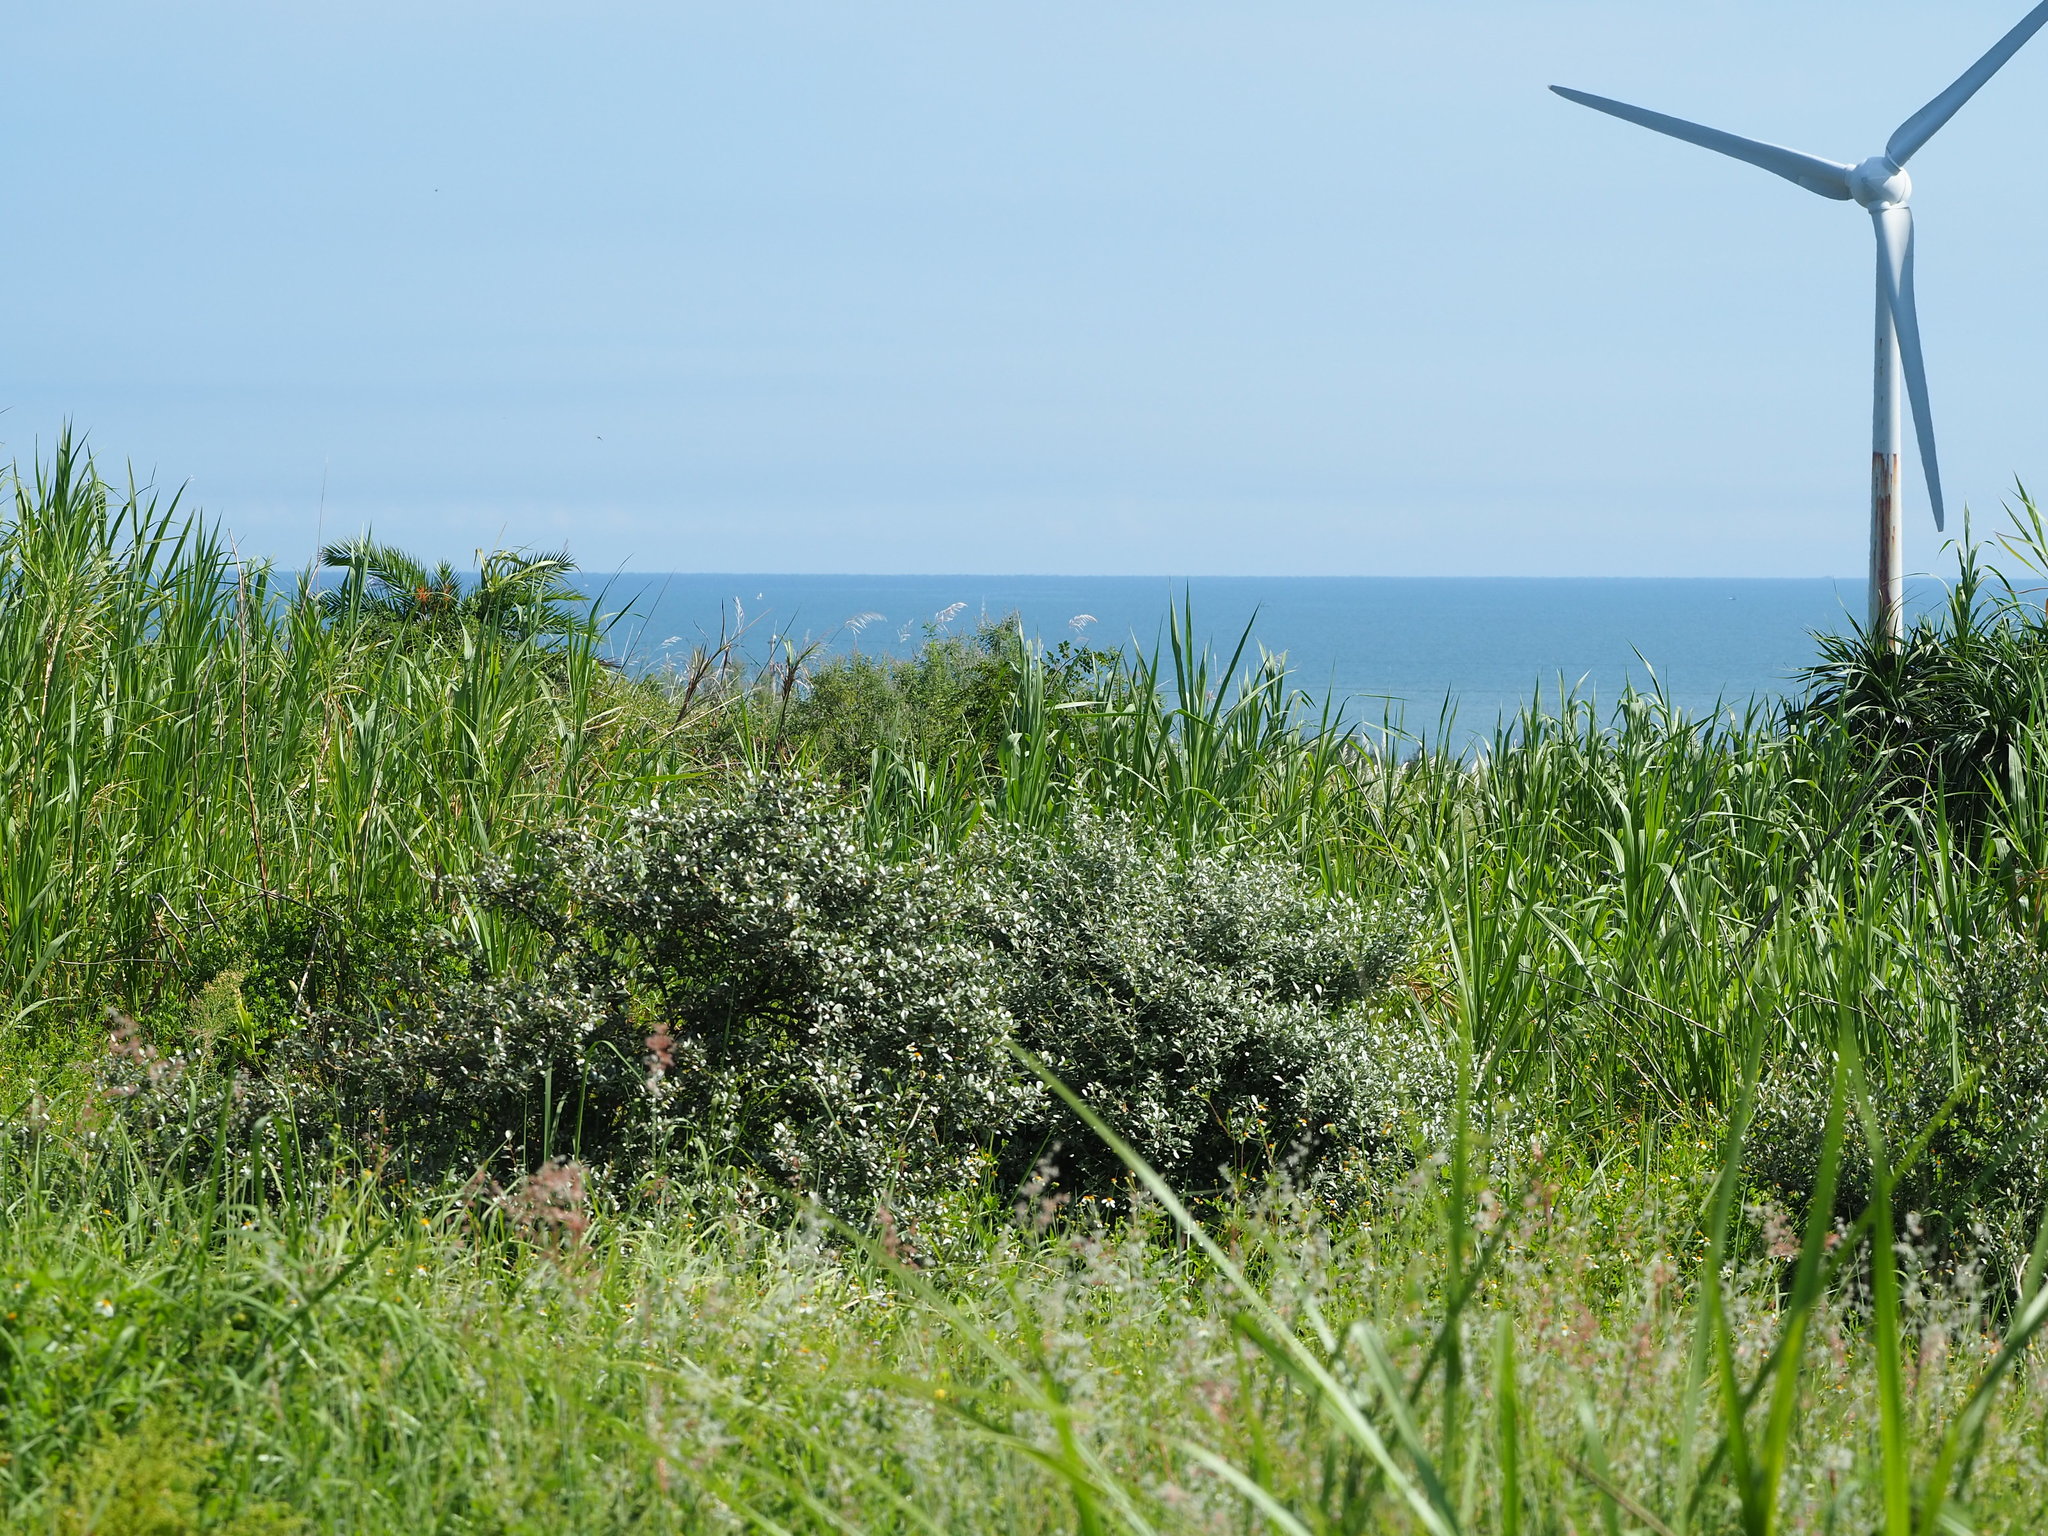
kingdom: Plantae
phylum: Tracheophyta
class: Magnoliopsida
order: Rosales
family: Elaeagnaceae
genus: Elaeagnus
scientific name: Elaeagnus oldhamii
